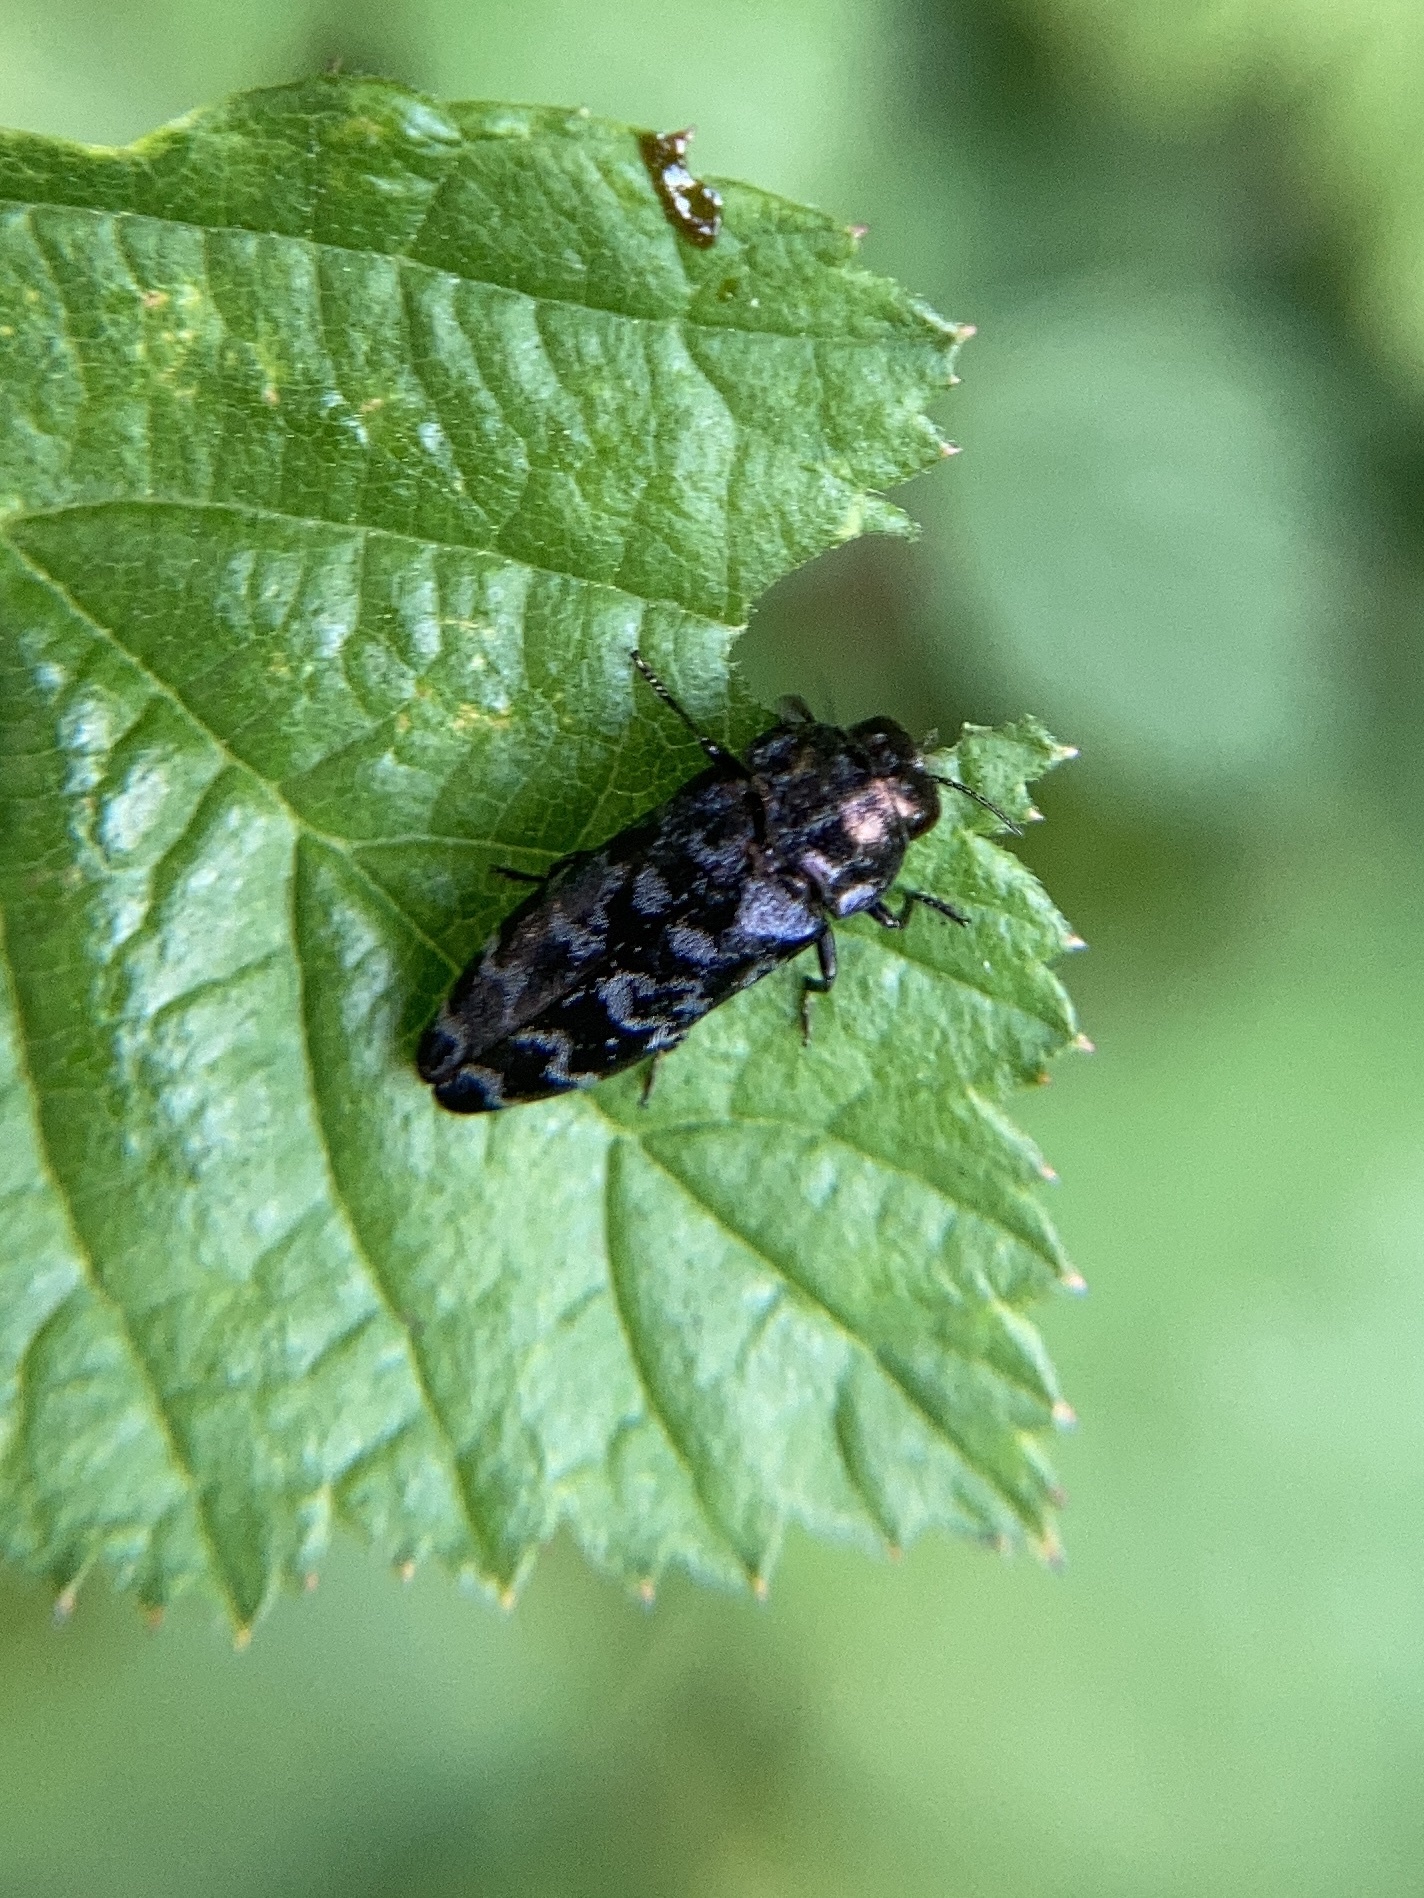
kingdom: Animalia
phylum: Arthropoda
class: Insecta
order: Coleoptera
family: Buprestidae
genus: Coraebus
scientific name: Coraebus rubi
